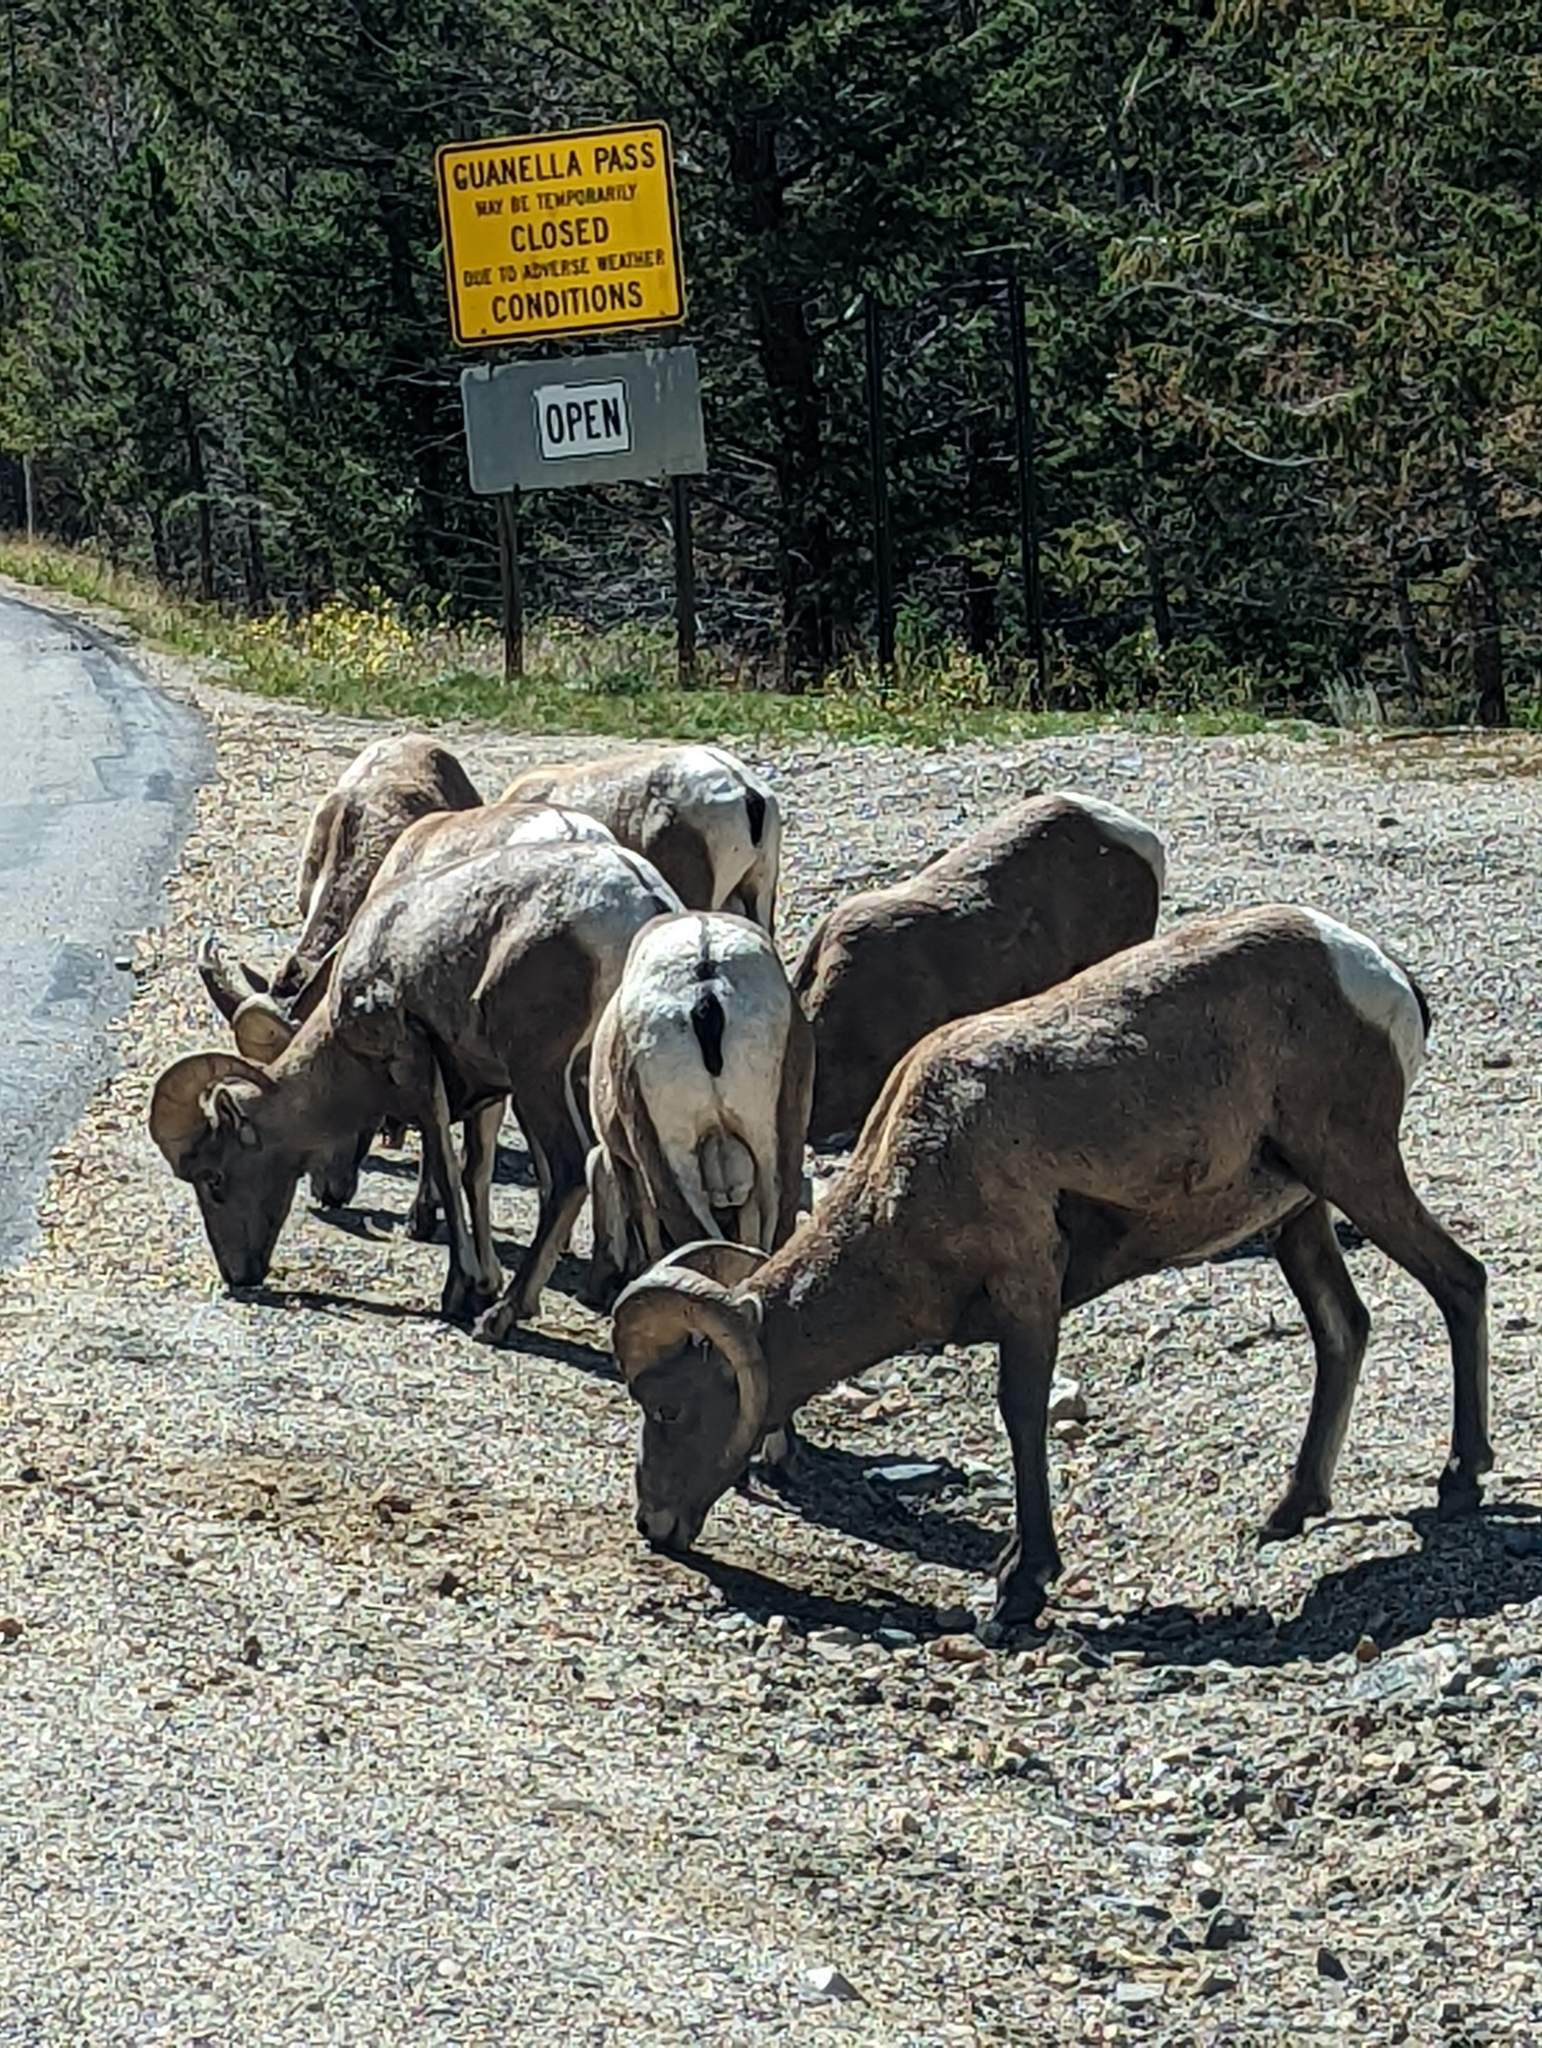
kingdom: Animalia
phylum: Chordata
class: Mammalia
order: Artiodactyla
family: Bovidae
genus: Ovis
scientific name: Ovis canadensis
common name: Bighorn sheep
